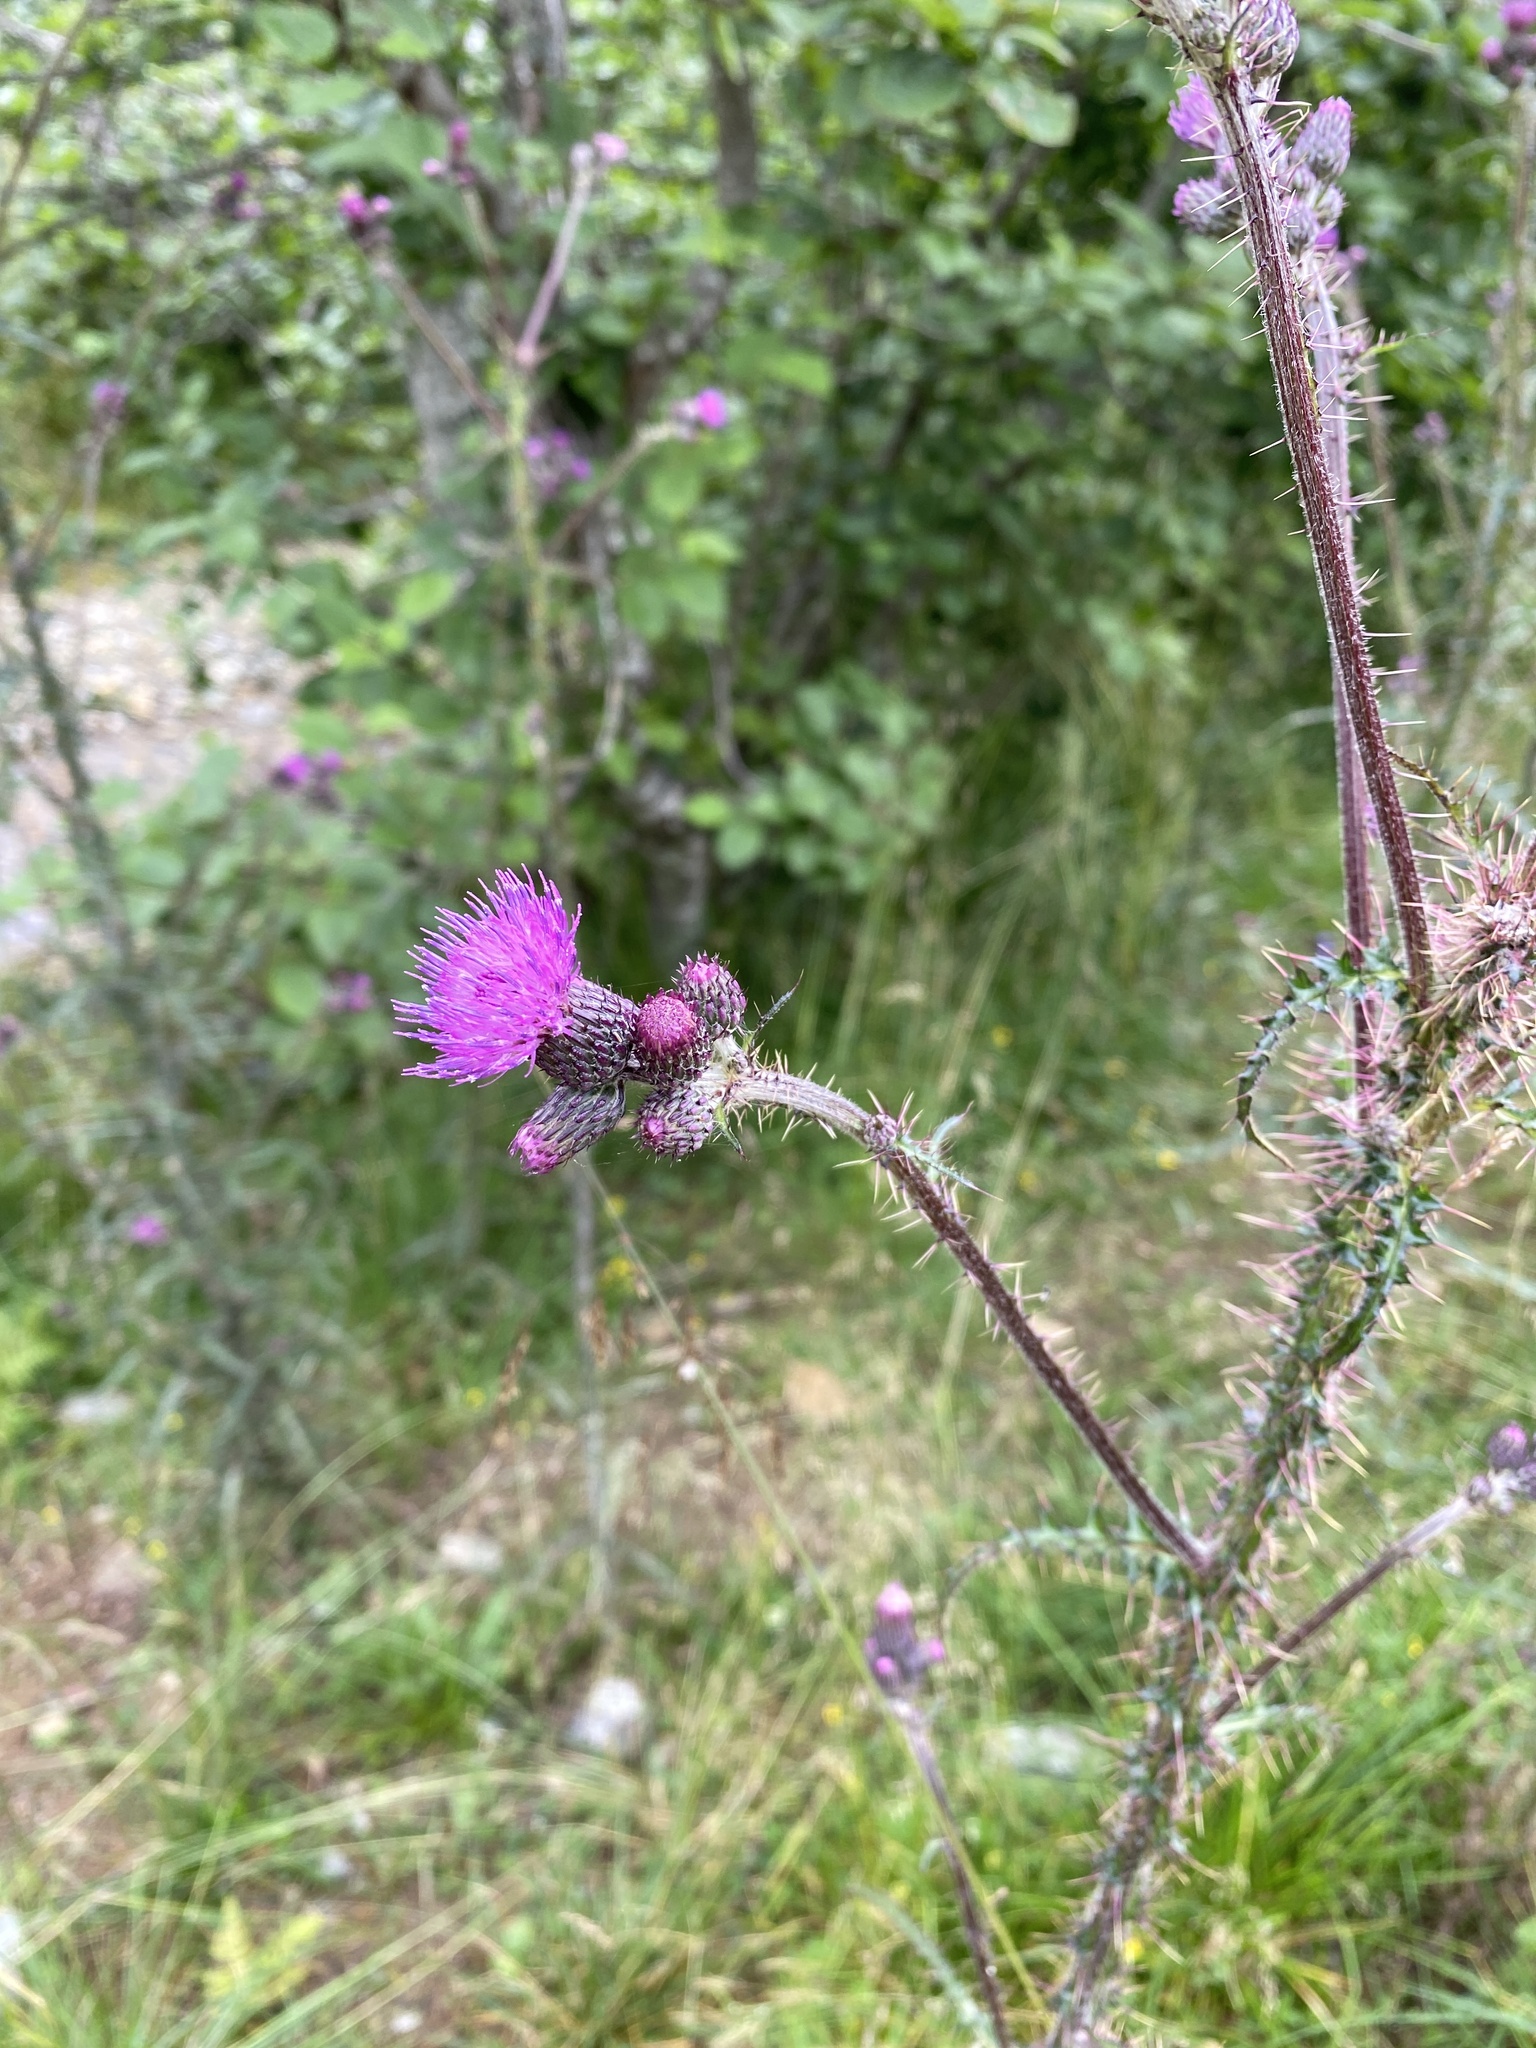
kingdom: Plantae
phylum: Tracheophyta
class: Magnoliopsida
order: Asterales
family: Asteraceae
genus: Cirsium
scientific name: Cirsium palustre
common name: Marsh thistle
